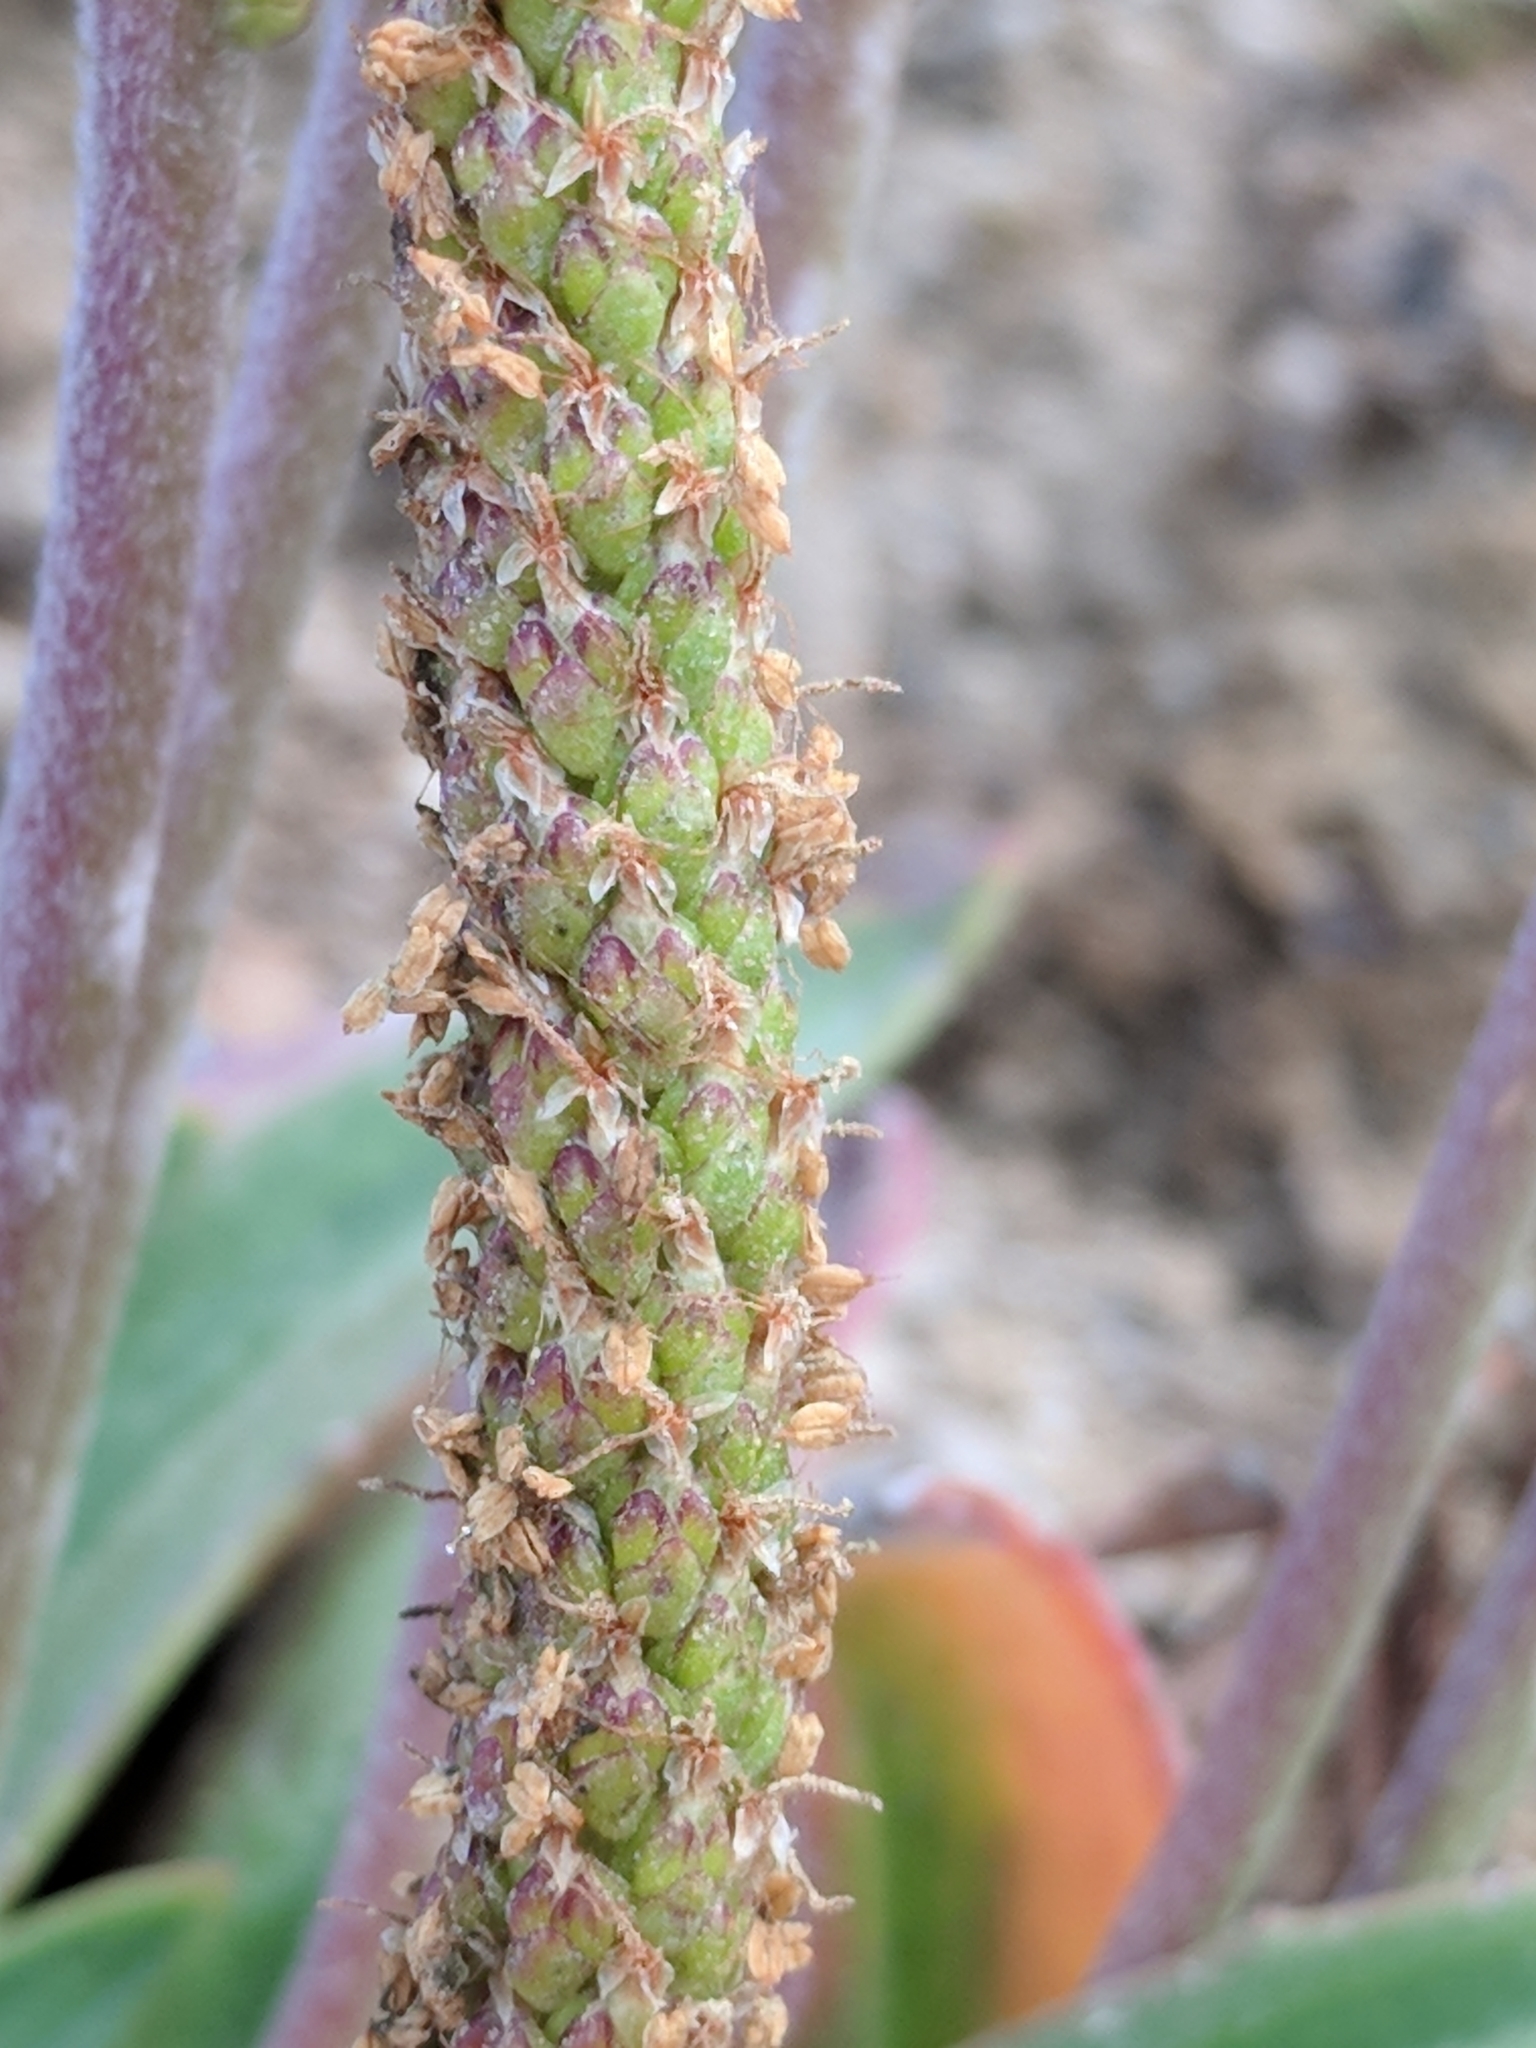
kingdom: Plantae
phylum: Tracheophyta
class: Magnoliopsida
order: Lamiales
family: Plantaginaceae
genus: Plantago
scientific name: Plantago maritima
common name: Sea plantain
